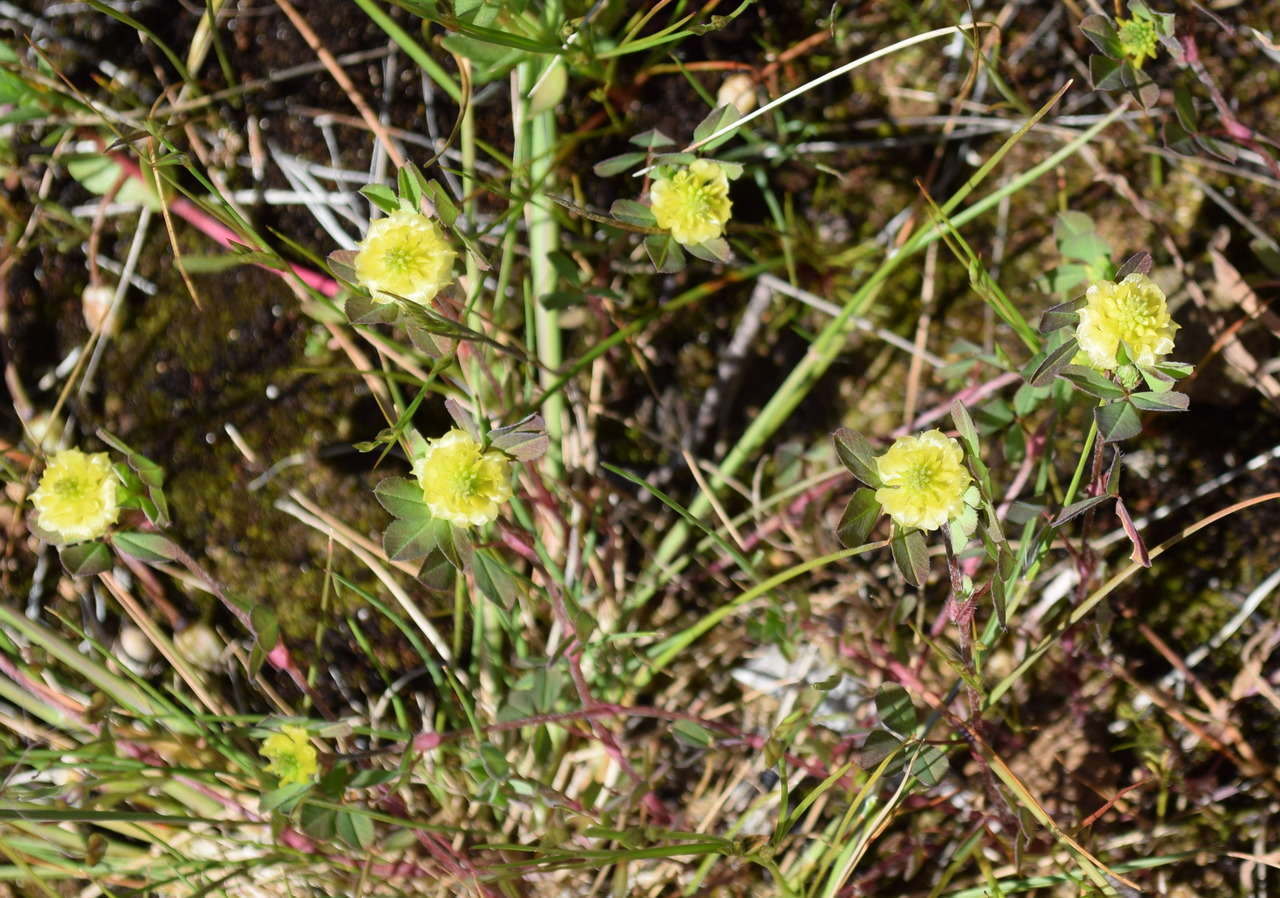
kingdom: Plantae
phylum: Tracheophyta
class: Magnoliopsida
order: Fabales
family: Fabaceae
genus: Trifolium
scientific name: Trifolium campestre
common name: Field clover
